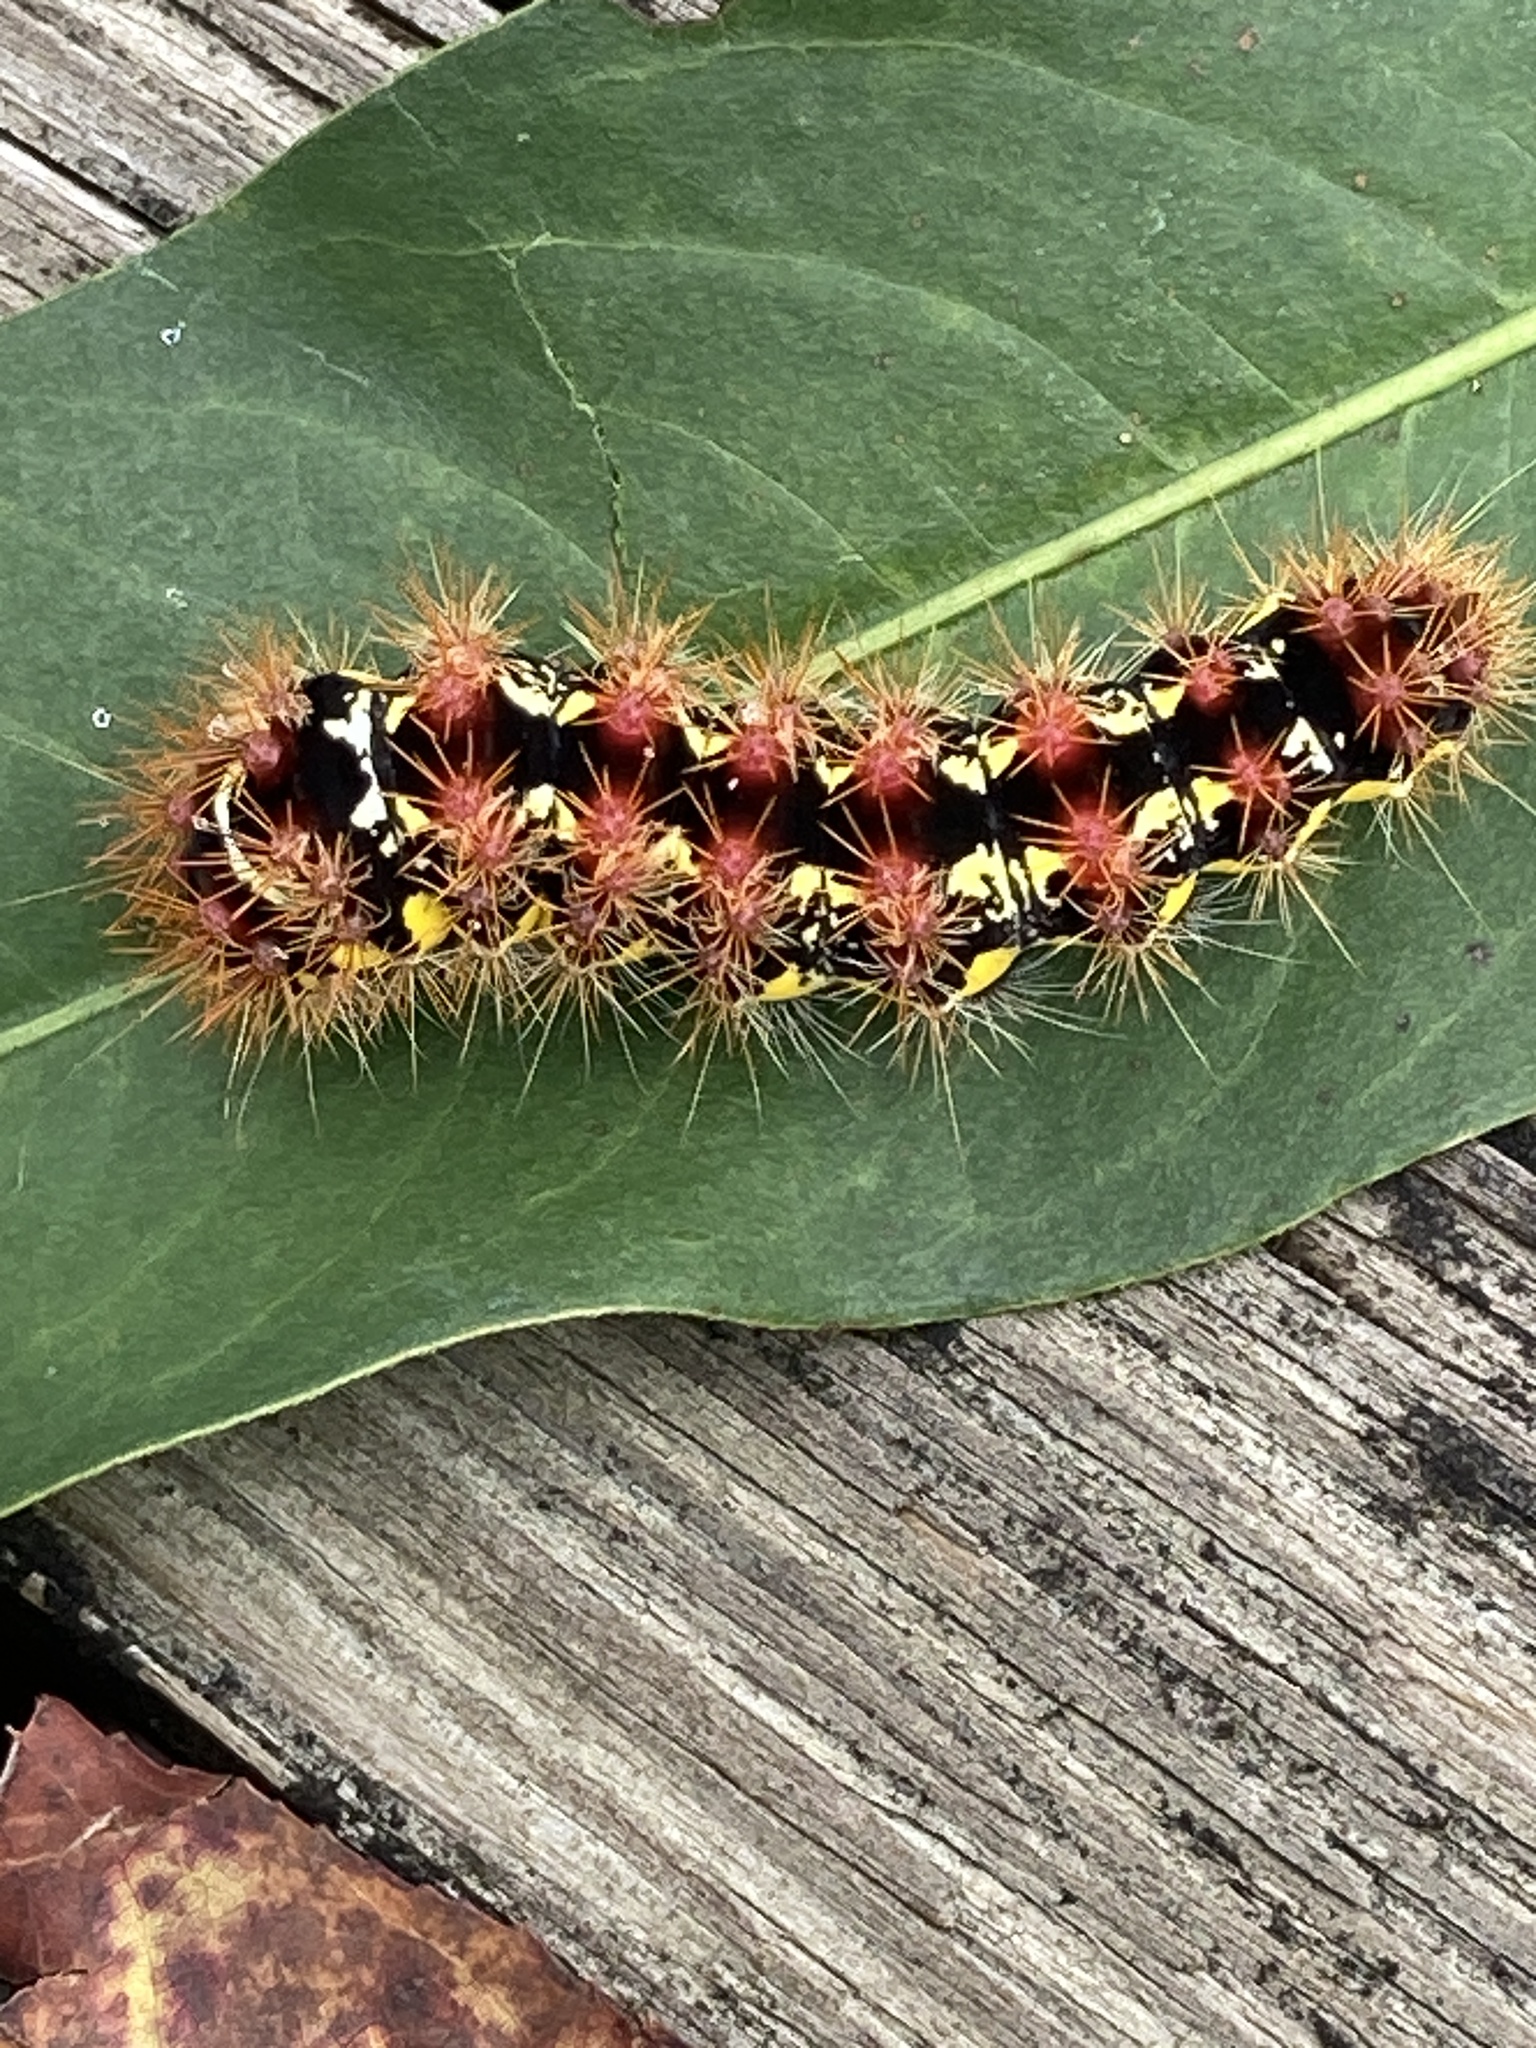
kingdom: Animalia
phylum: Arthropoda
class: Insecta
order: Lepidoptera
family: Noctuidae
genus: Acronicta
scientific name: Acronicta oblinita
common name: Smeared dagger
